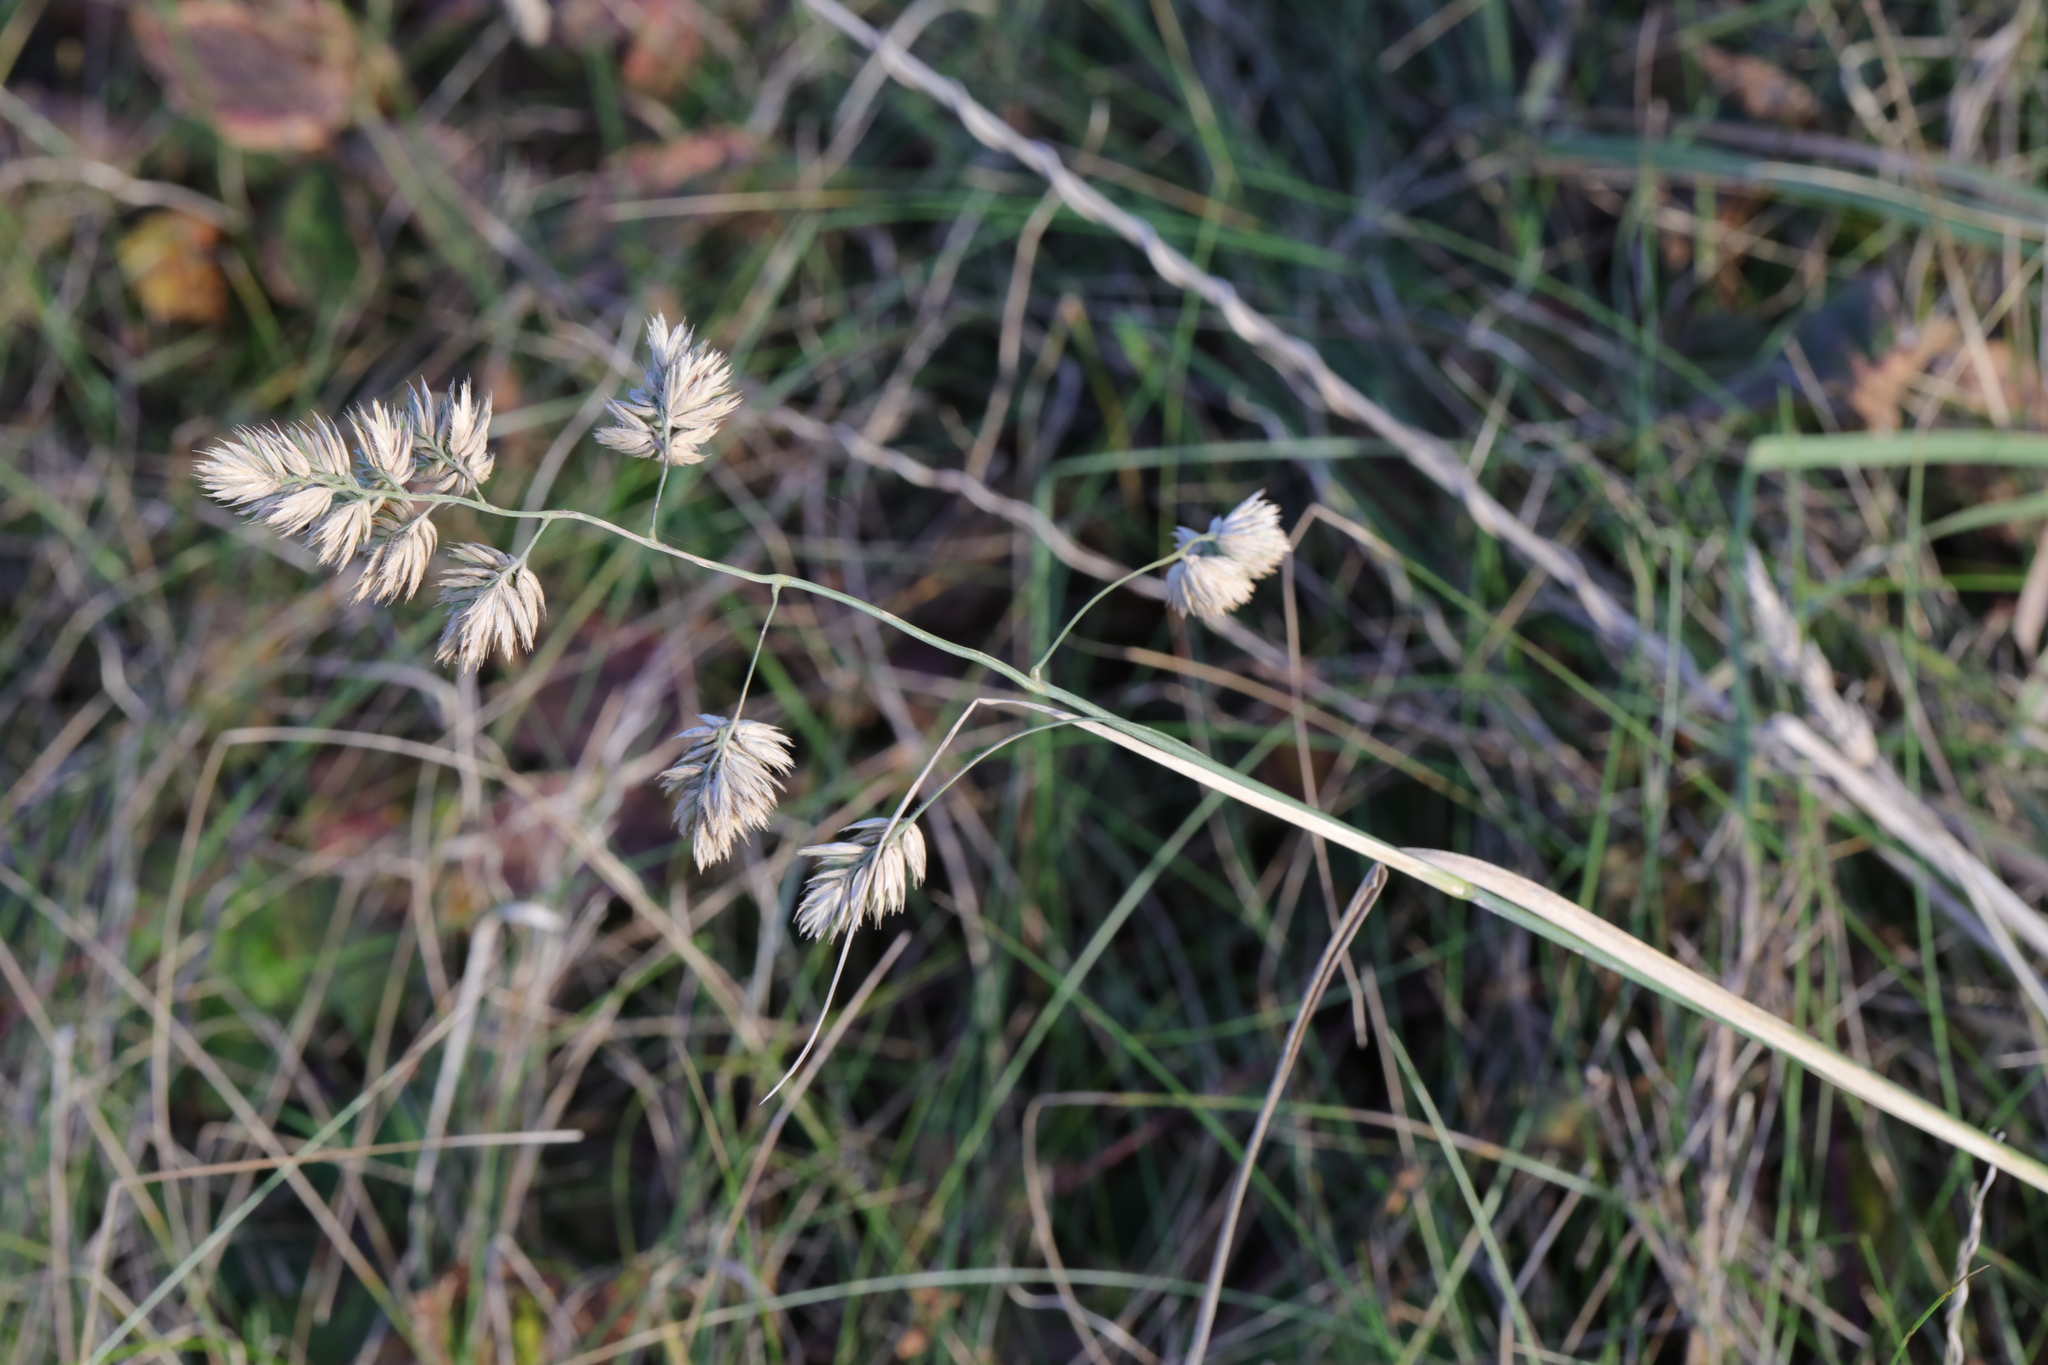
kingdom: Plantae
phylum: Tracheophyta
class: Liliopsida
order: Poales
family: Poaceae
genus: Dactylis
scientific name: Dactylis glomerata
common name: Orchardgrass
